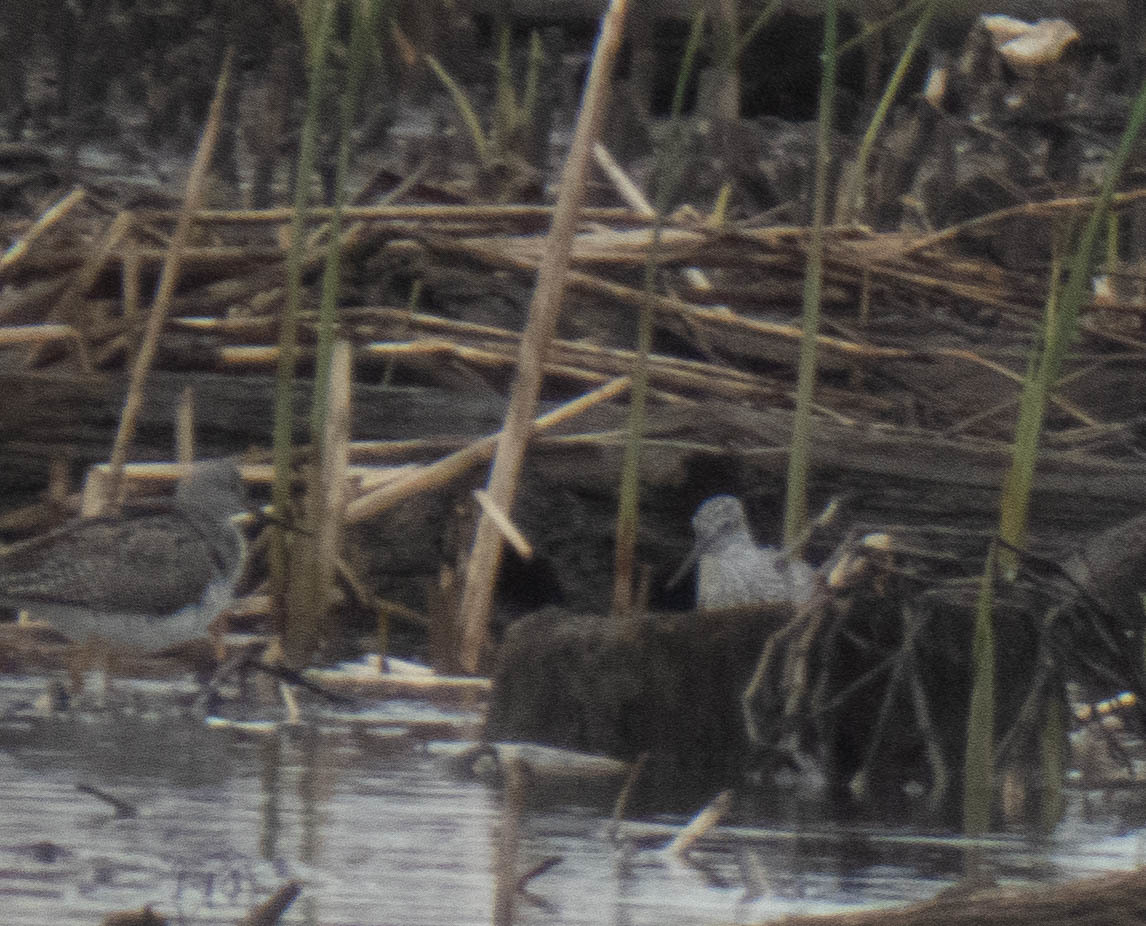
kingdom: Animalia
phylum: Chordata
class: Aves
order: Charadriiformes
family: Scolopacidae
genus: Tringa
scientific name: Tringa melanoleuca
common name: Greater yellowlegs
